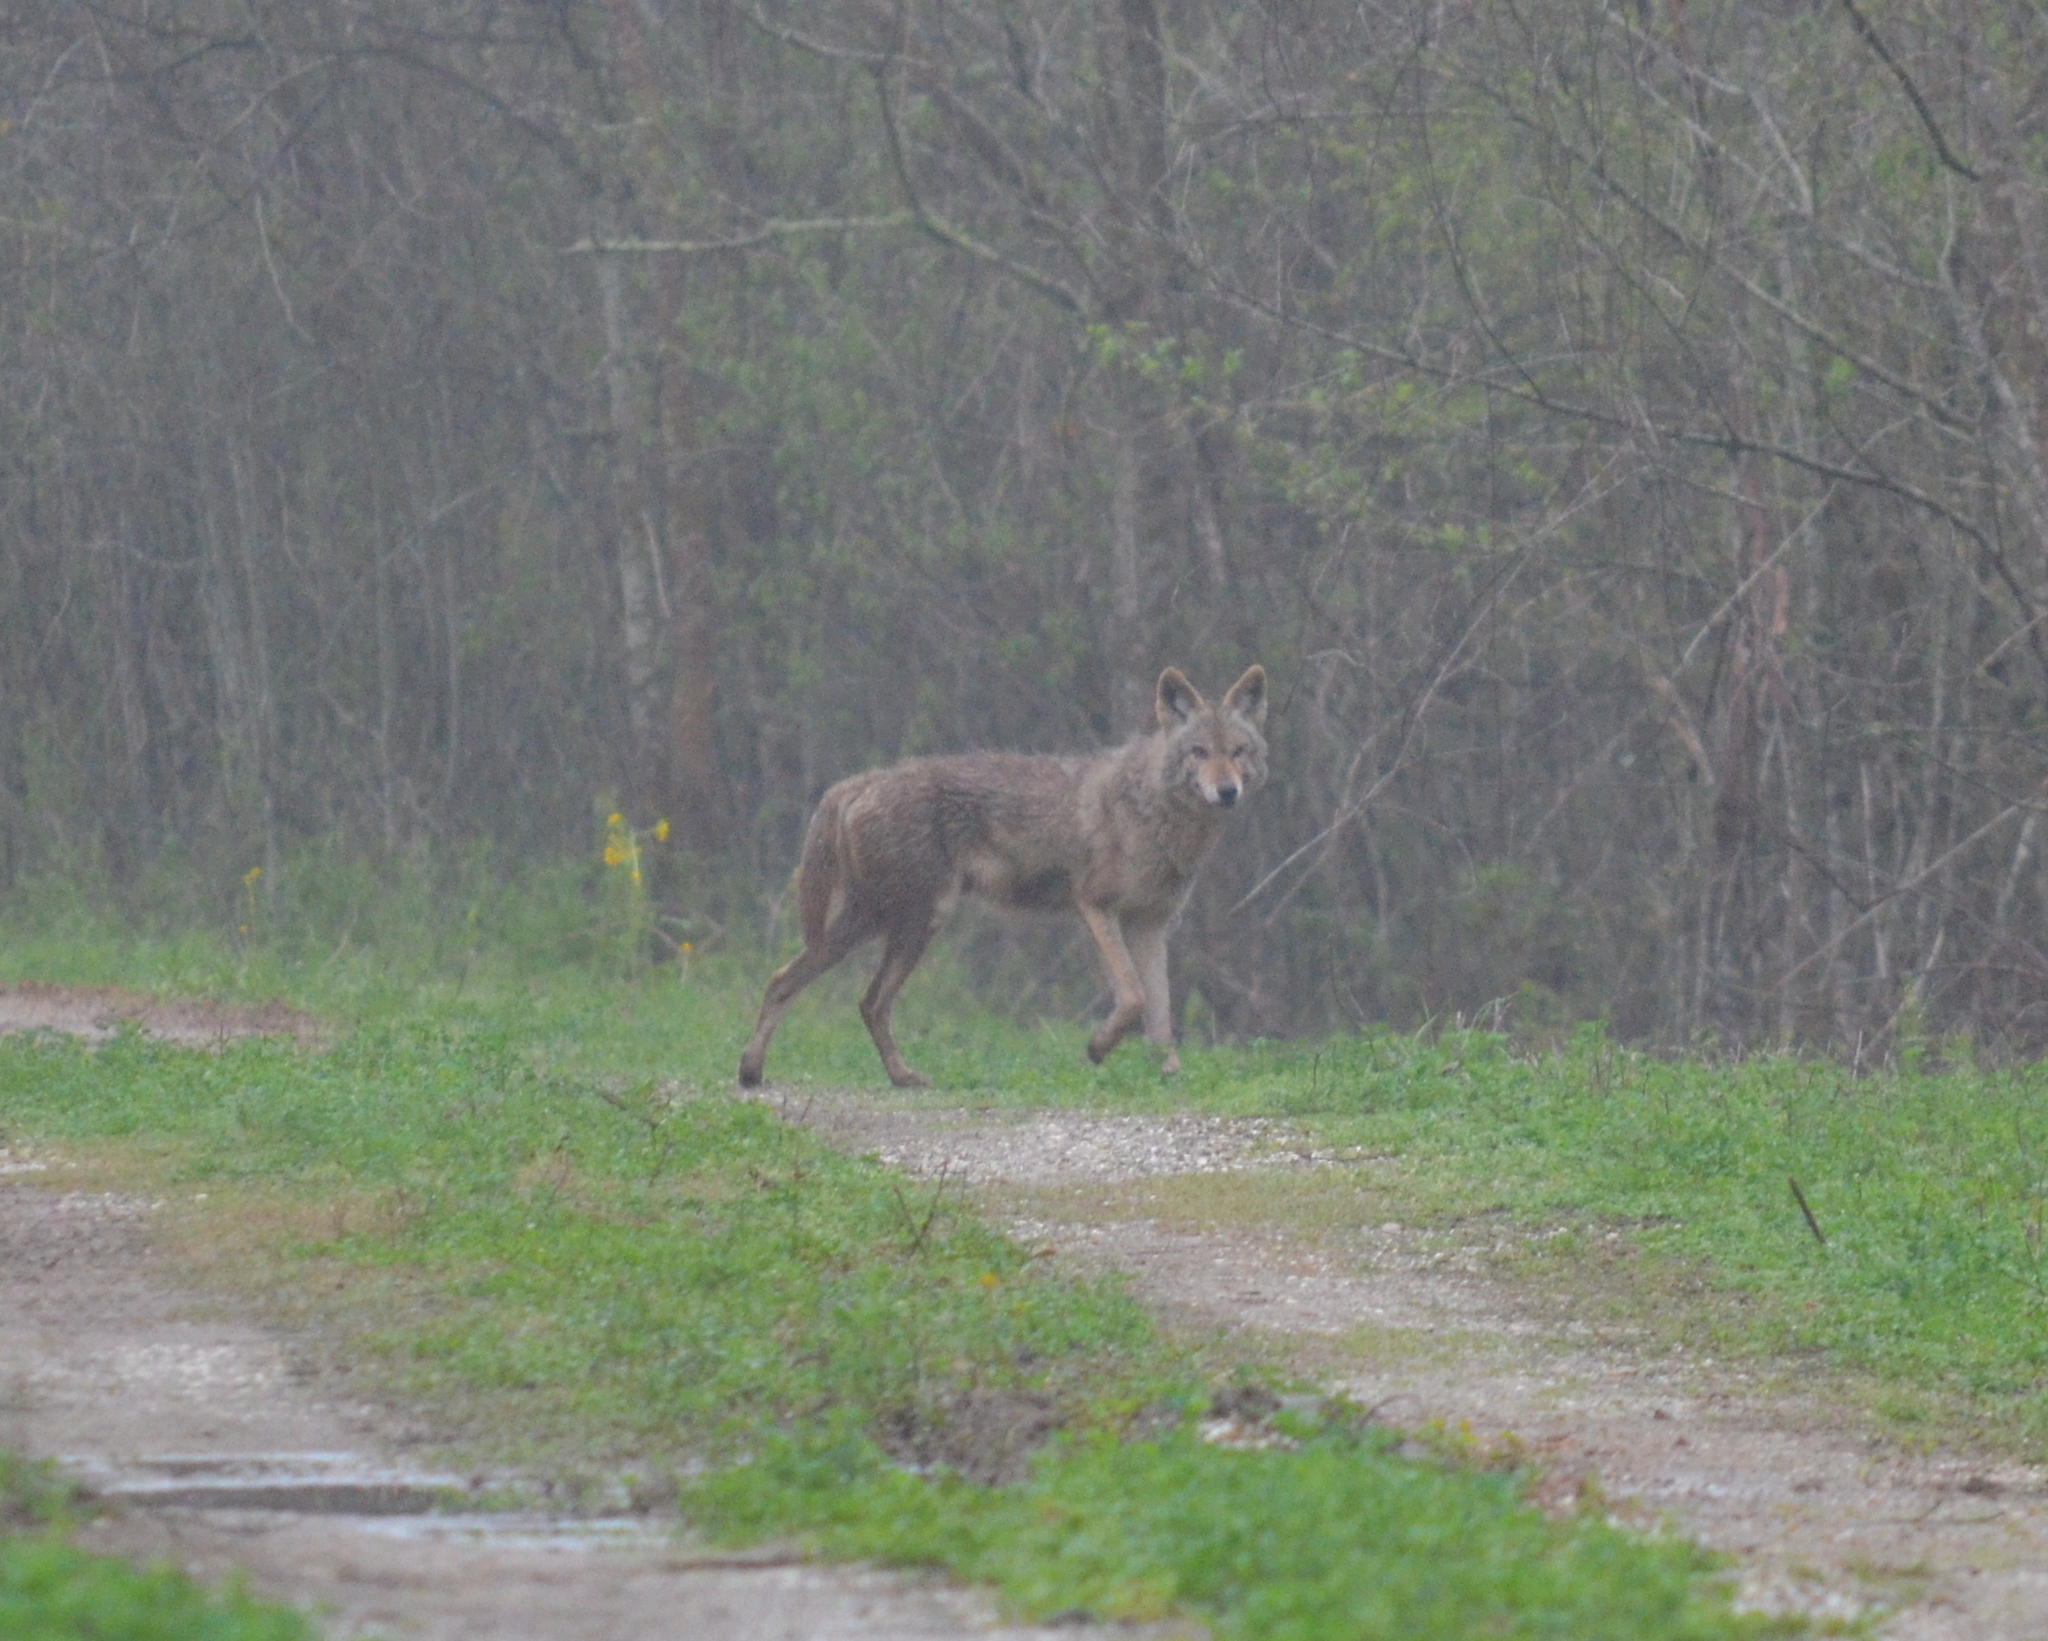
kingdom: Animalia
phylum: Chordata
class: Mammalia
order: Carnivora
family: Canidae
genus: Canis
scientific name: Canis latrans
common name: Coyote
